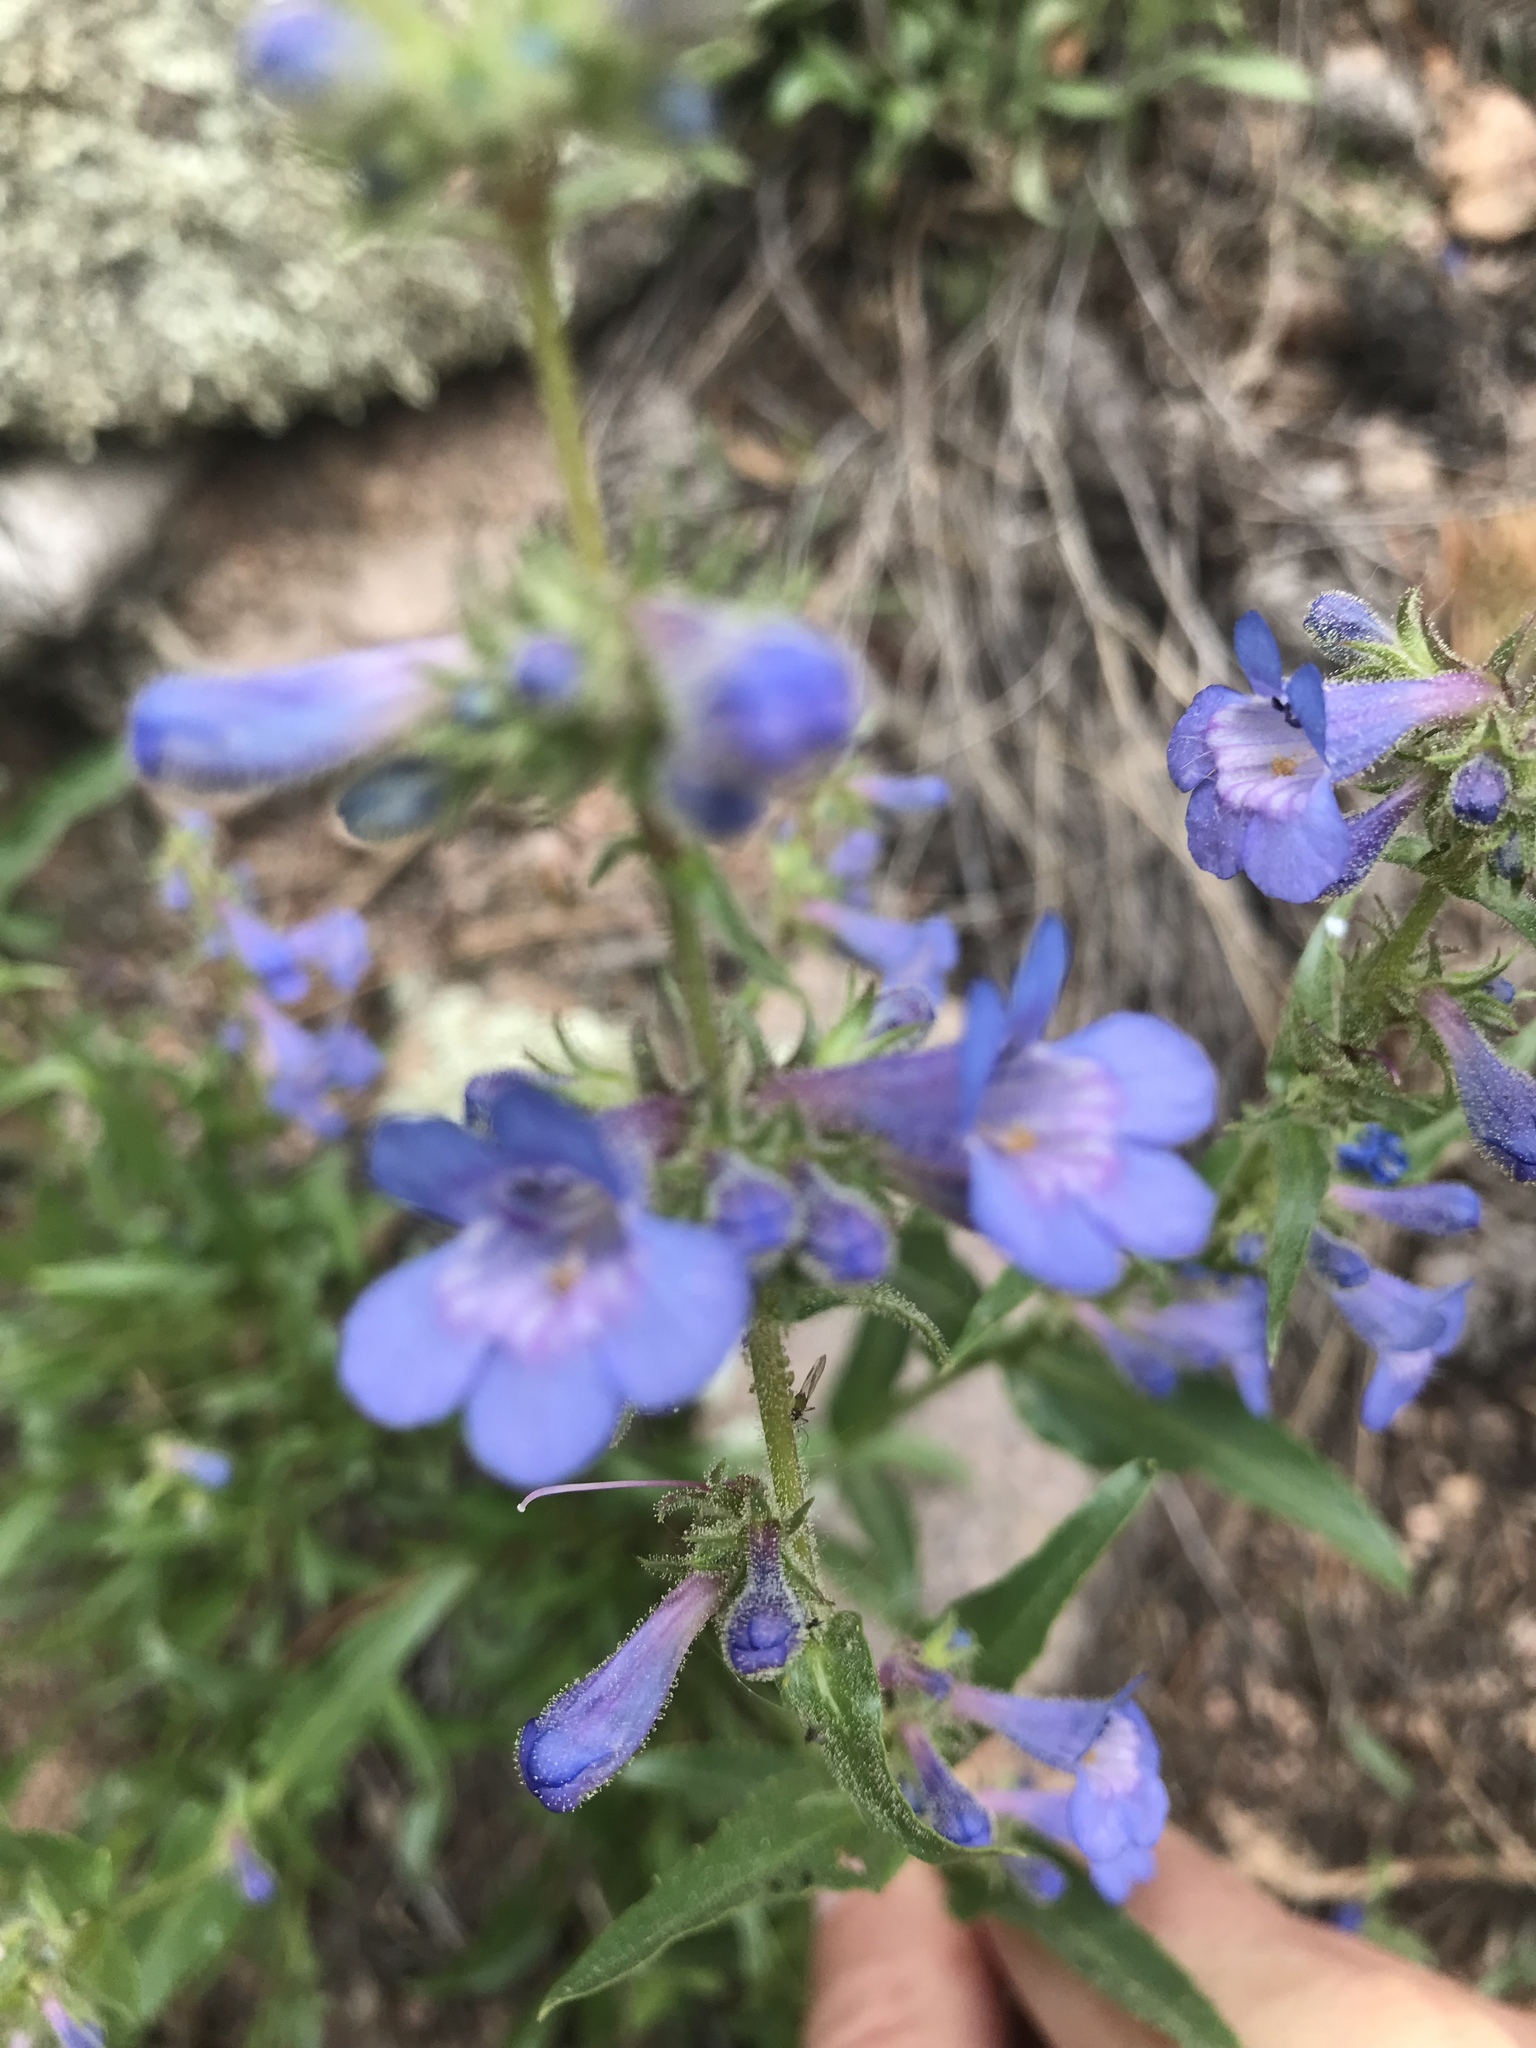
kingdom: Plantae
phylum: Tracheophyta
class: Magnoliopsida
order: Lamiales
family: Plantaginaceae
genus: Penstemon
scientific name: Penstemon virens
